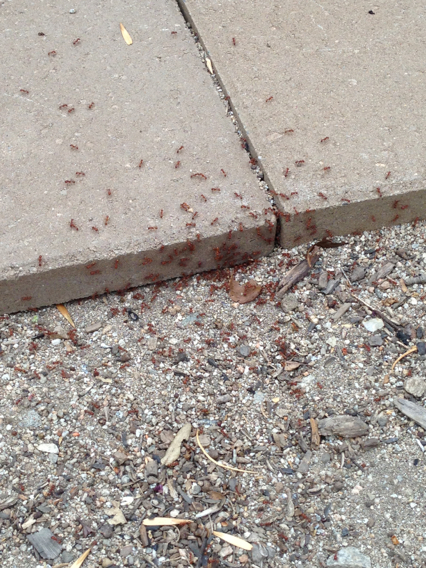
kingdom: Animalia
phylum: Arthropoda
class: Insecta
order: Hymenoptera
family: Formicidae
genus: Pogonomyrmex
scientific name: Pogonomyrmex californicus
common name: California harvester ant
